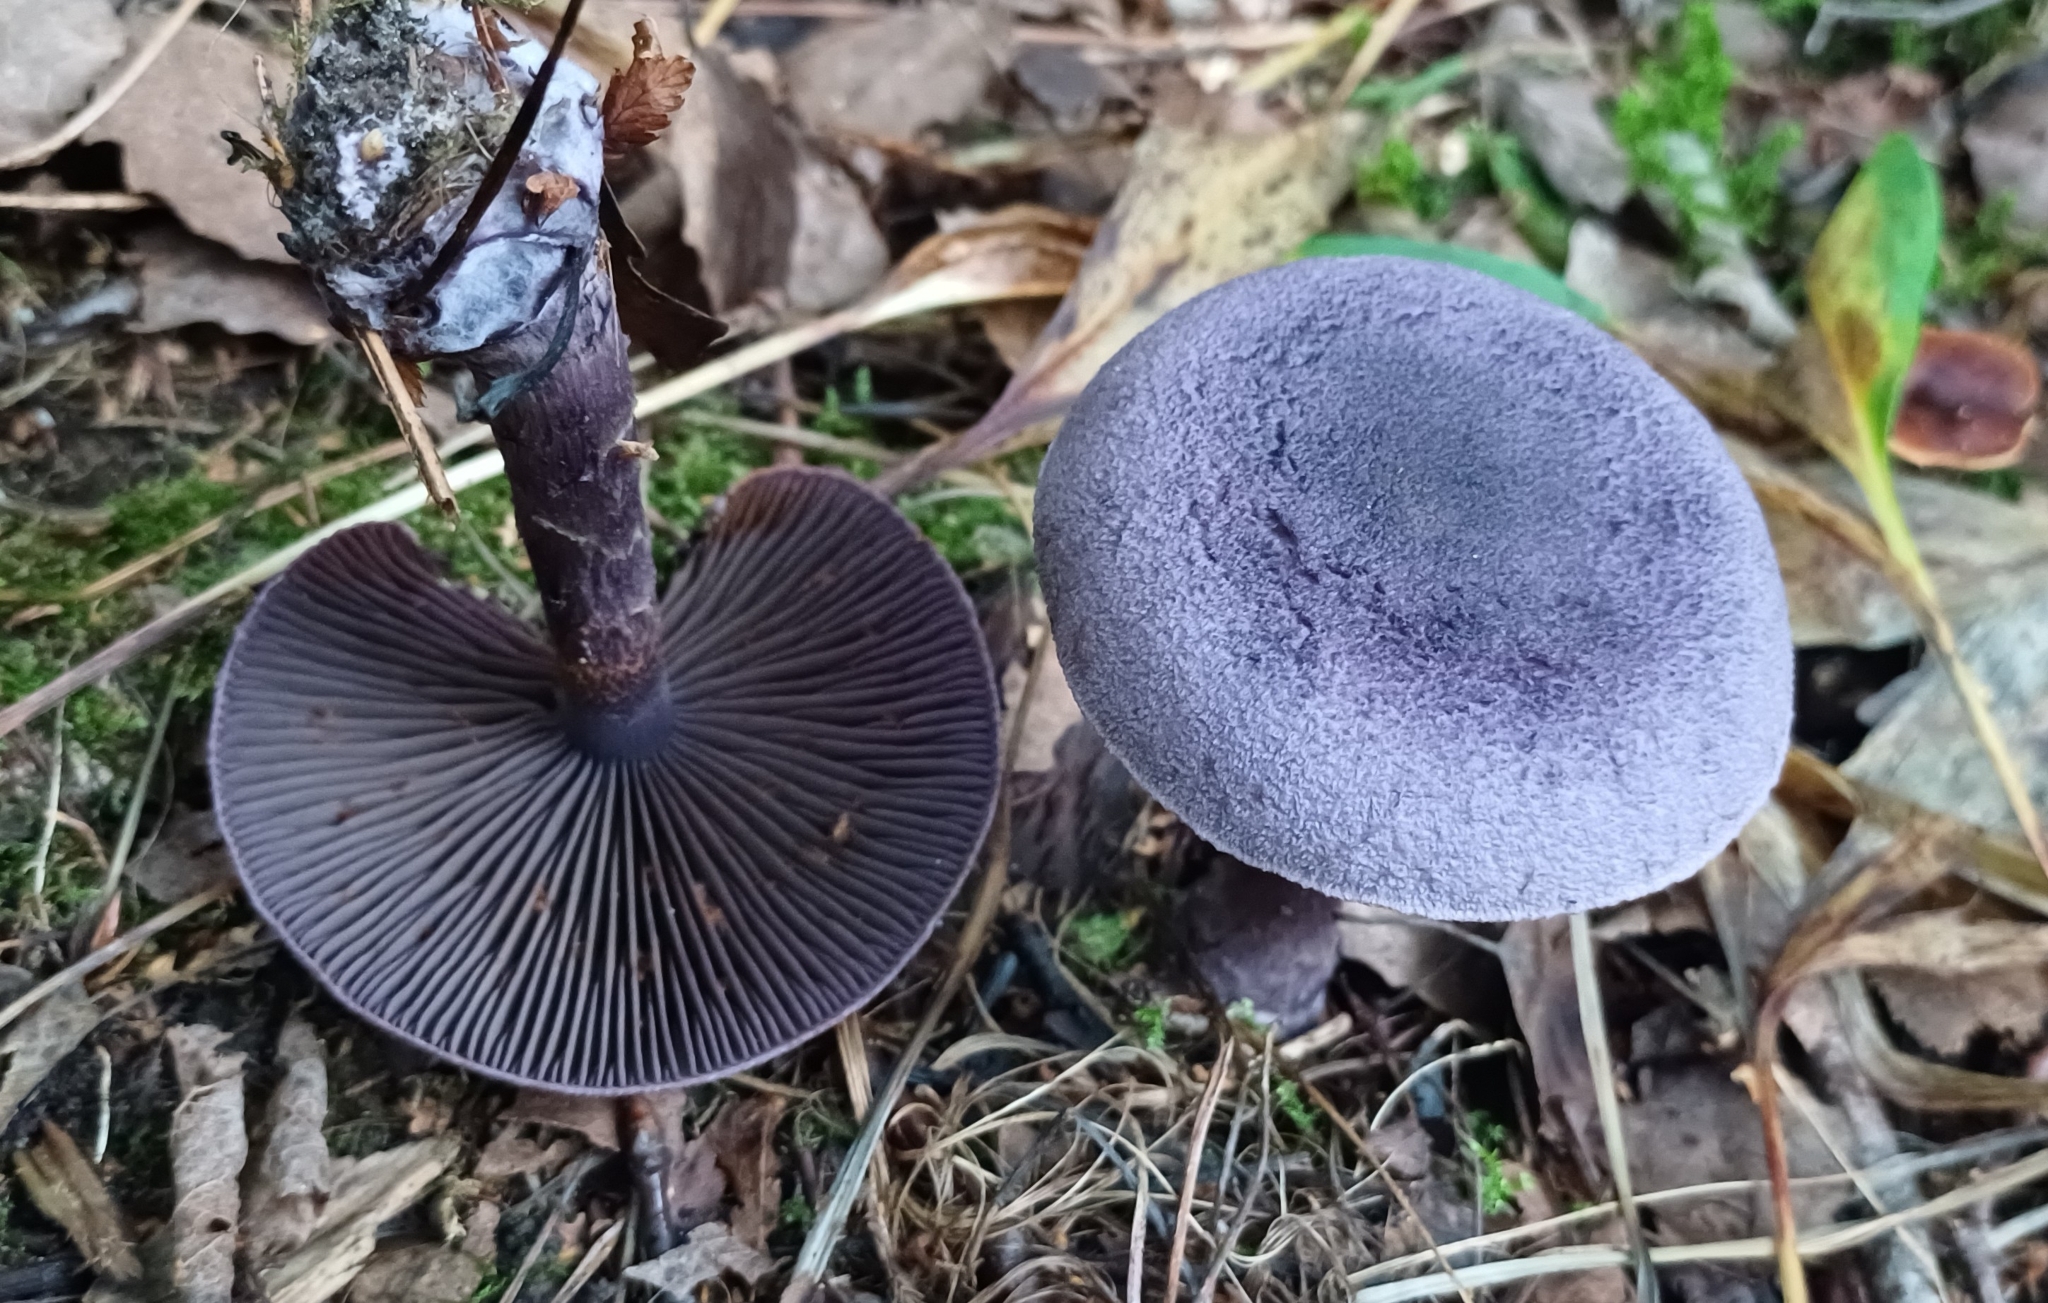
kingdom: Fungi
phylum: Basidiomycota
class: Agaricomycetes
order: Agaricales
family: Cortinariaceae
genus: Cortinarius
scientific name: Cortinarius violaceus
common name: Violet webcap
